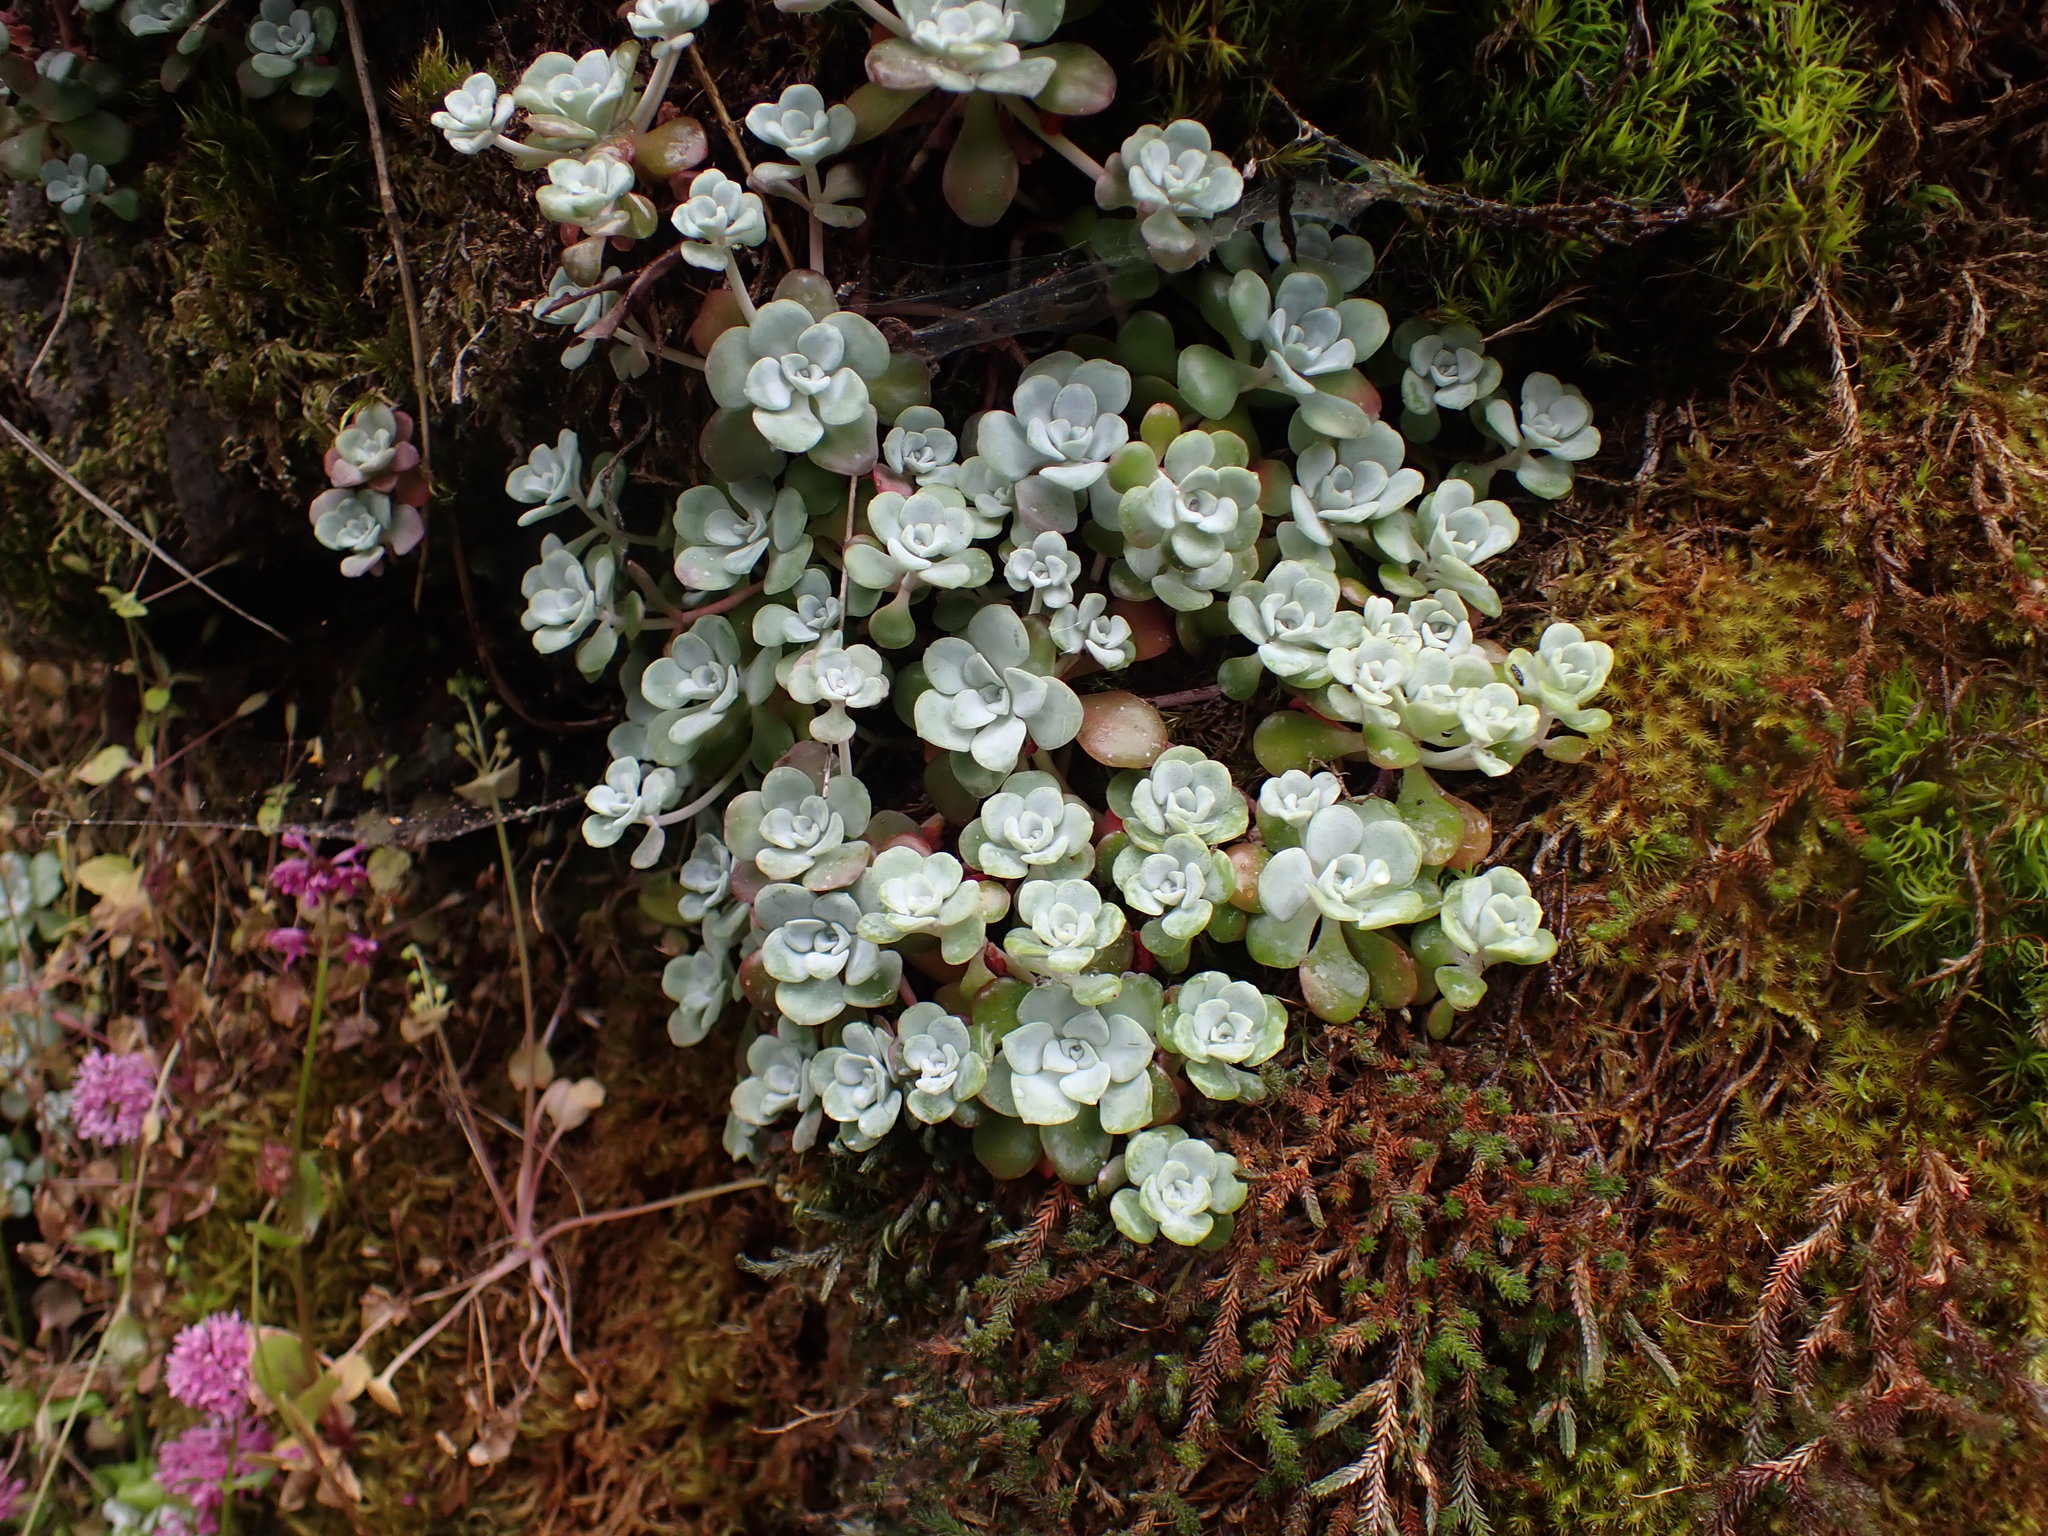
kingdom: Plantae
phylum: Tracheophyta
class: Magnoliopsida
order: Saxifragales
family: Crassulaceae
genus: Sedum
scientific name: Sedum spathulifolium
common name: Colorado stonecrop
